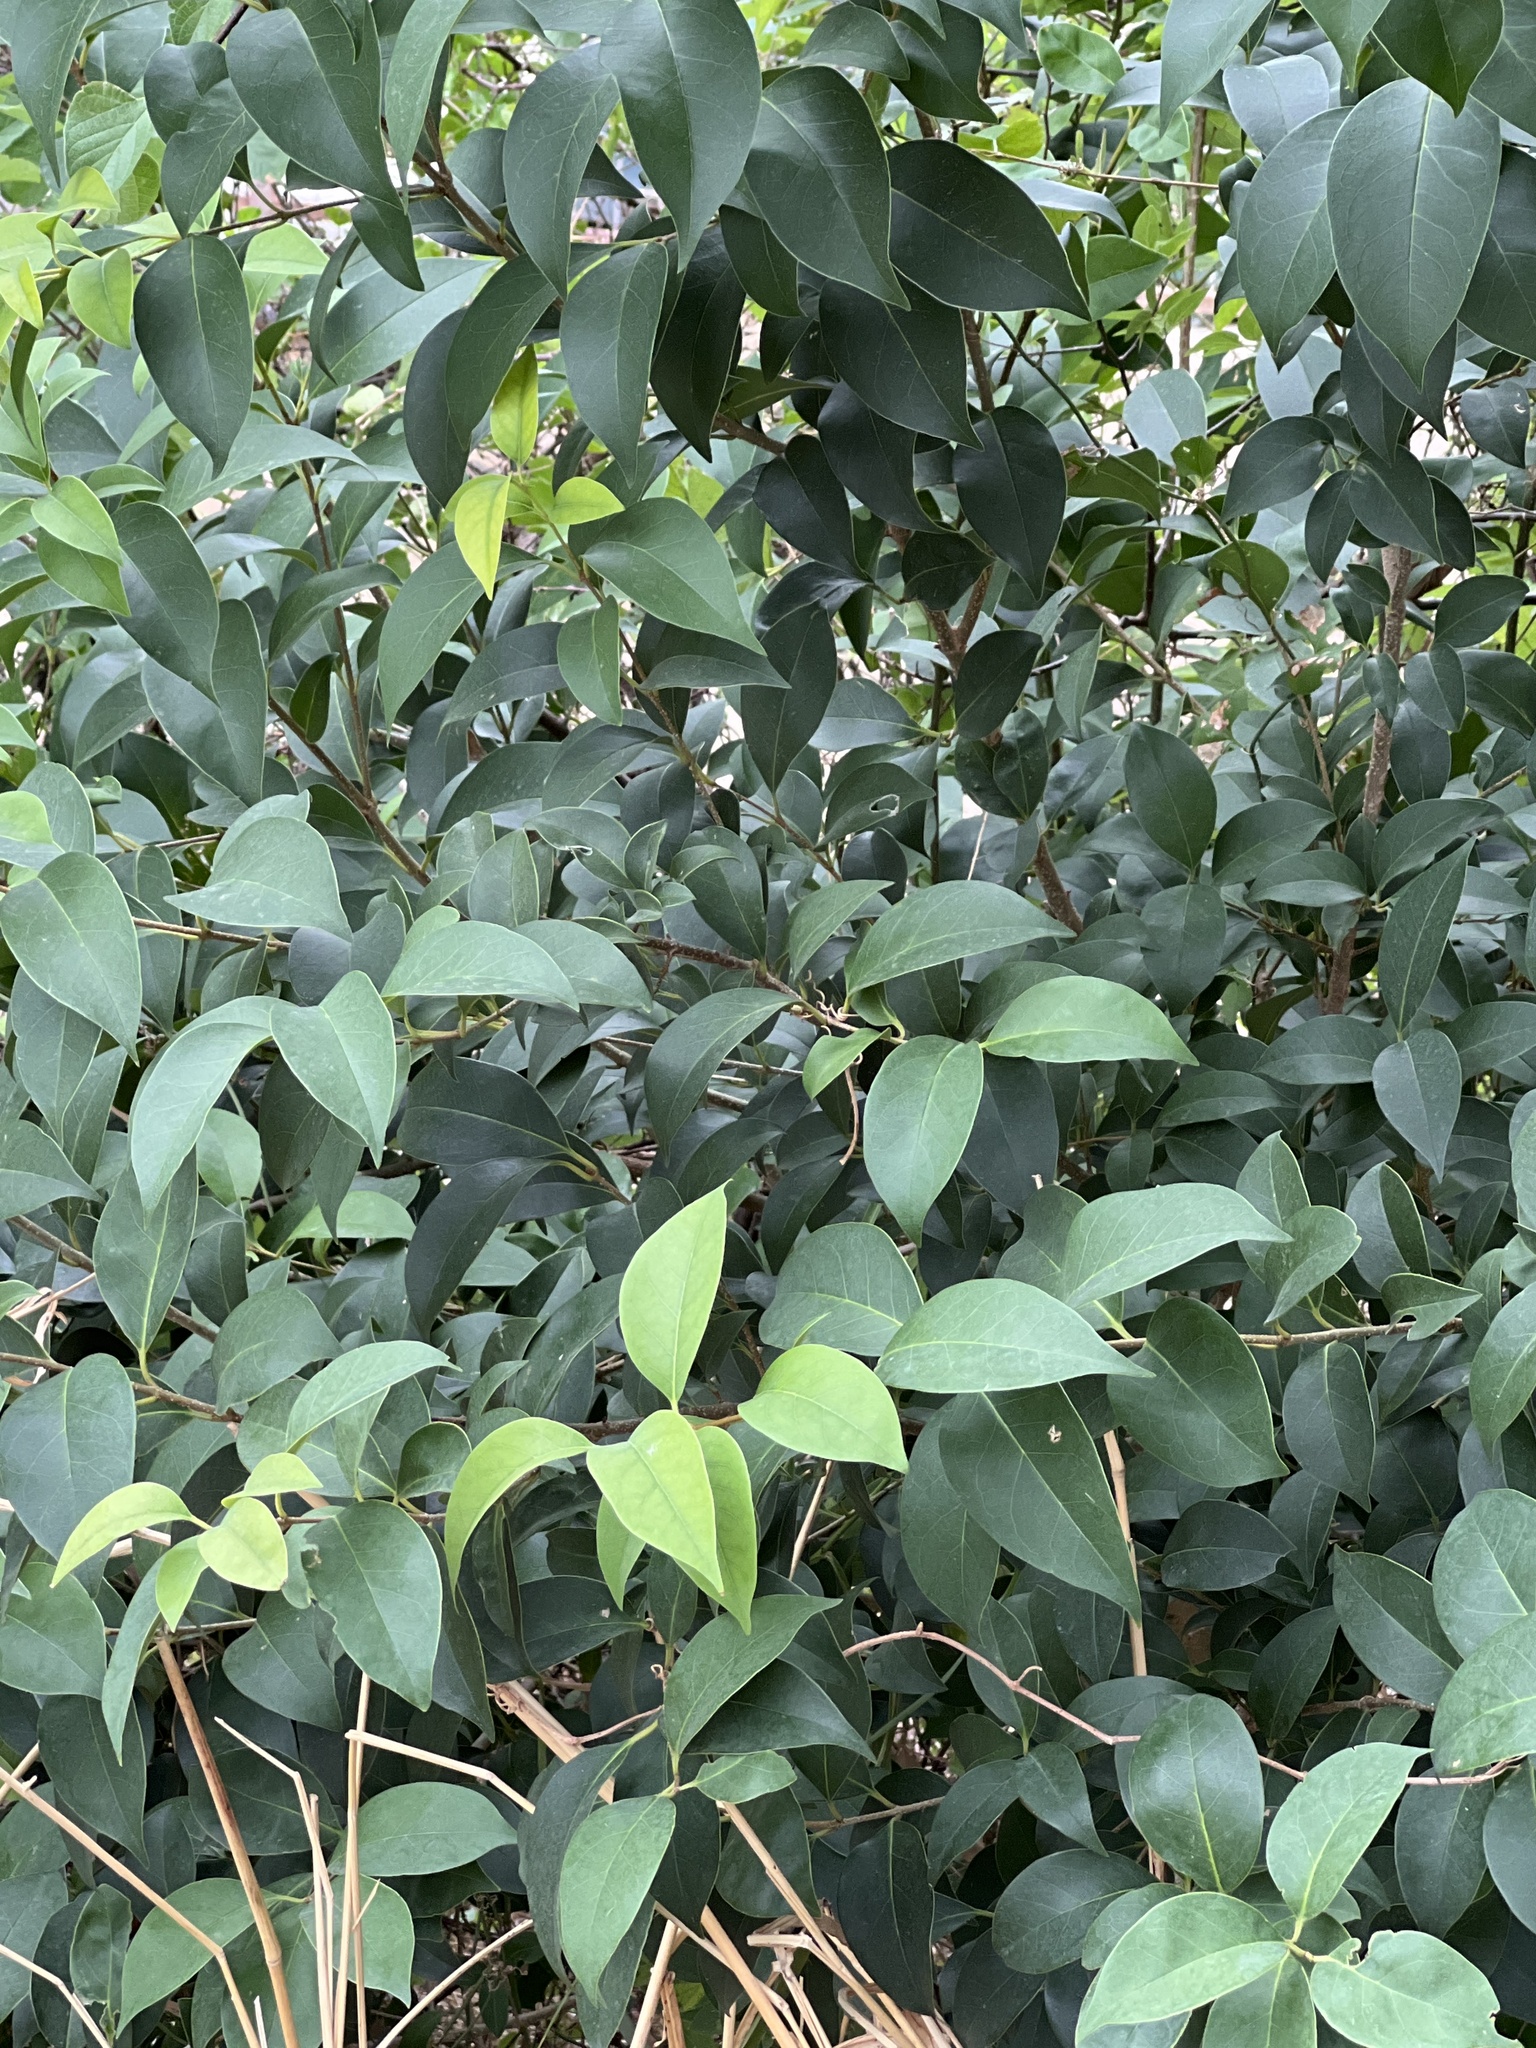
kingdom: Plantae
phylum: Tracheophyta
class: Magnoliopsida
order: Lamiales
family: Oleaceae
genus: Ligustrum
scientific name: Ligustrum lucidum
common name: Glossy privet
